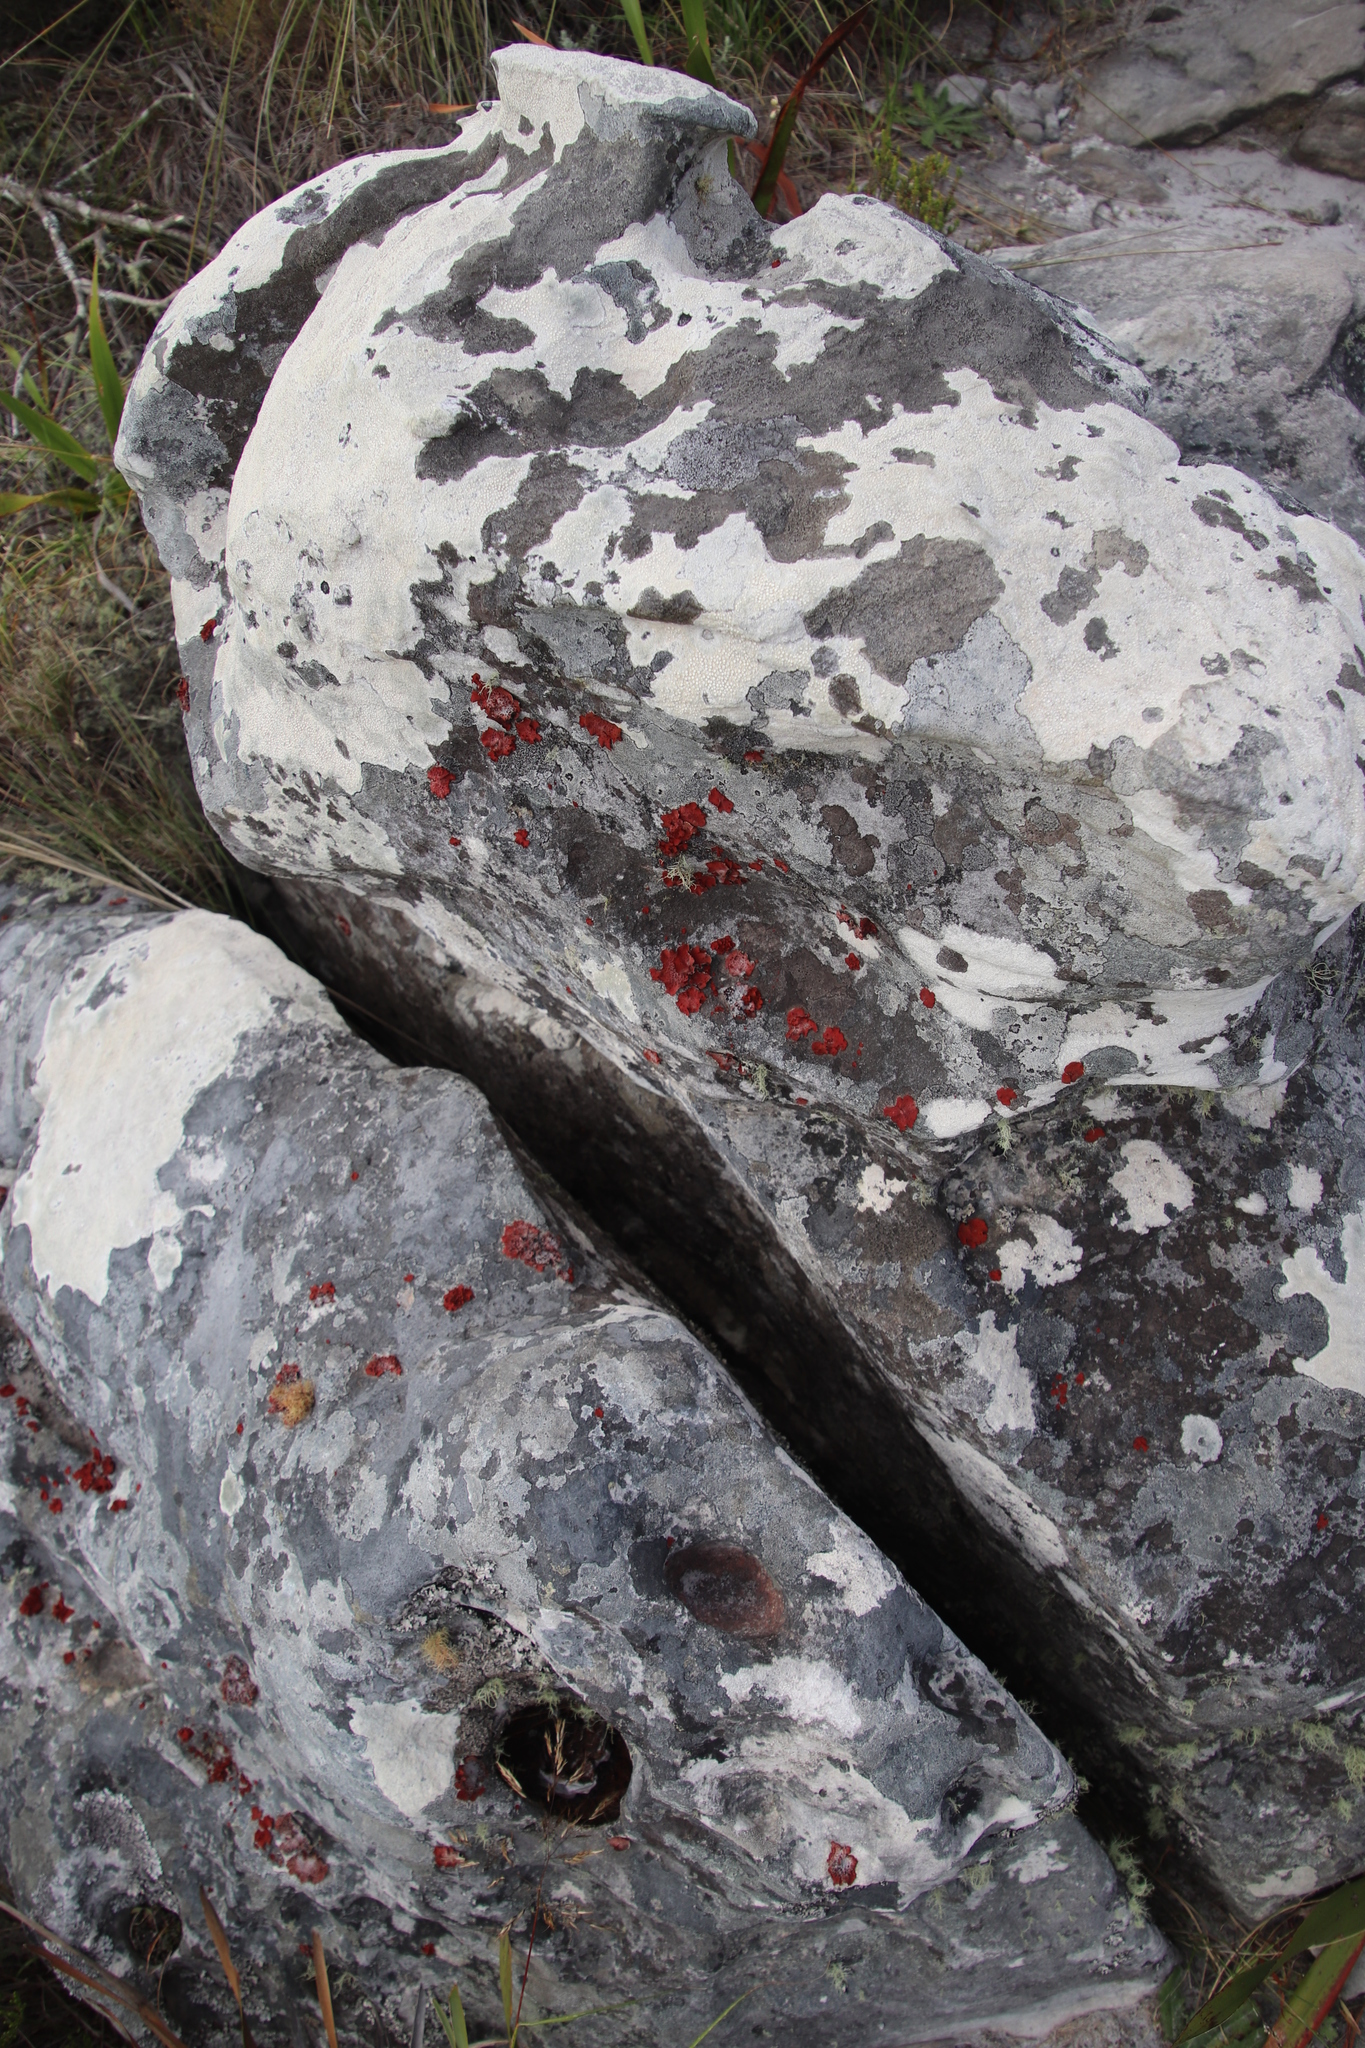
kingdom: Fungi
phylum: Ascomycota
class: Lecanoromycetes
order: Umbilicariales
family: Umbilicariaceae
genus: Lasallia
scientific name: Lasallia rubiginosa
